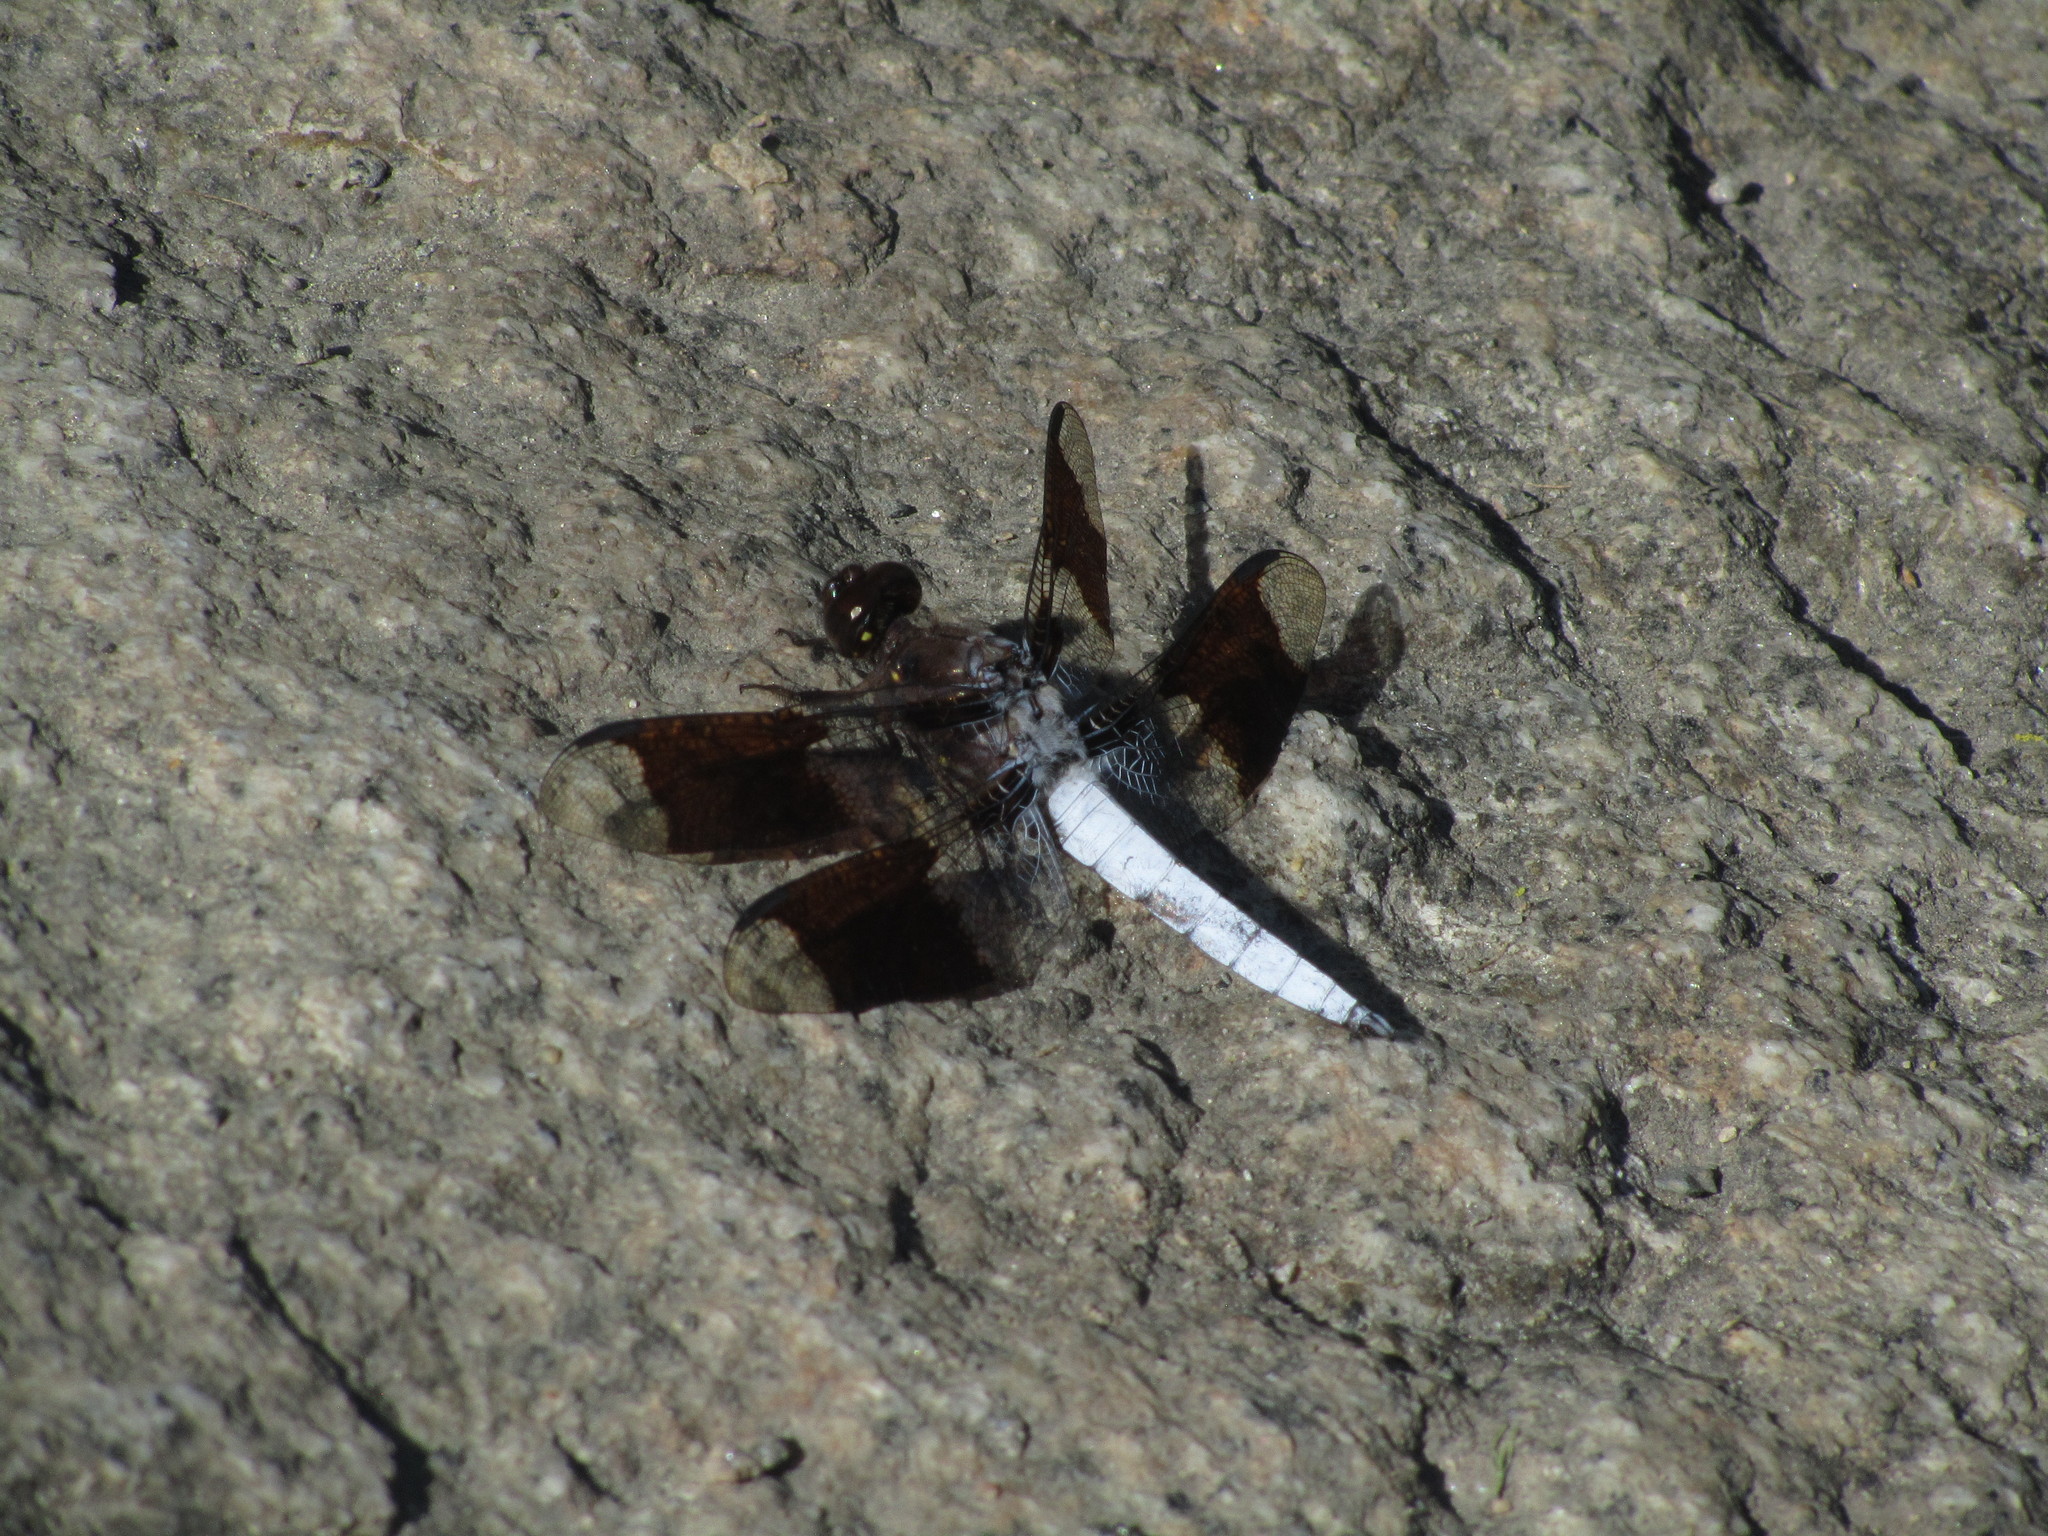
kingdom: Animalia
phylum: Arthropoda
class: Insecta
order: Odonata
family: Libellulidae
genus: Plathemis
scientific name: Plathemis lydia
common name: Common whitetail
